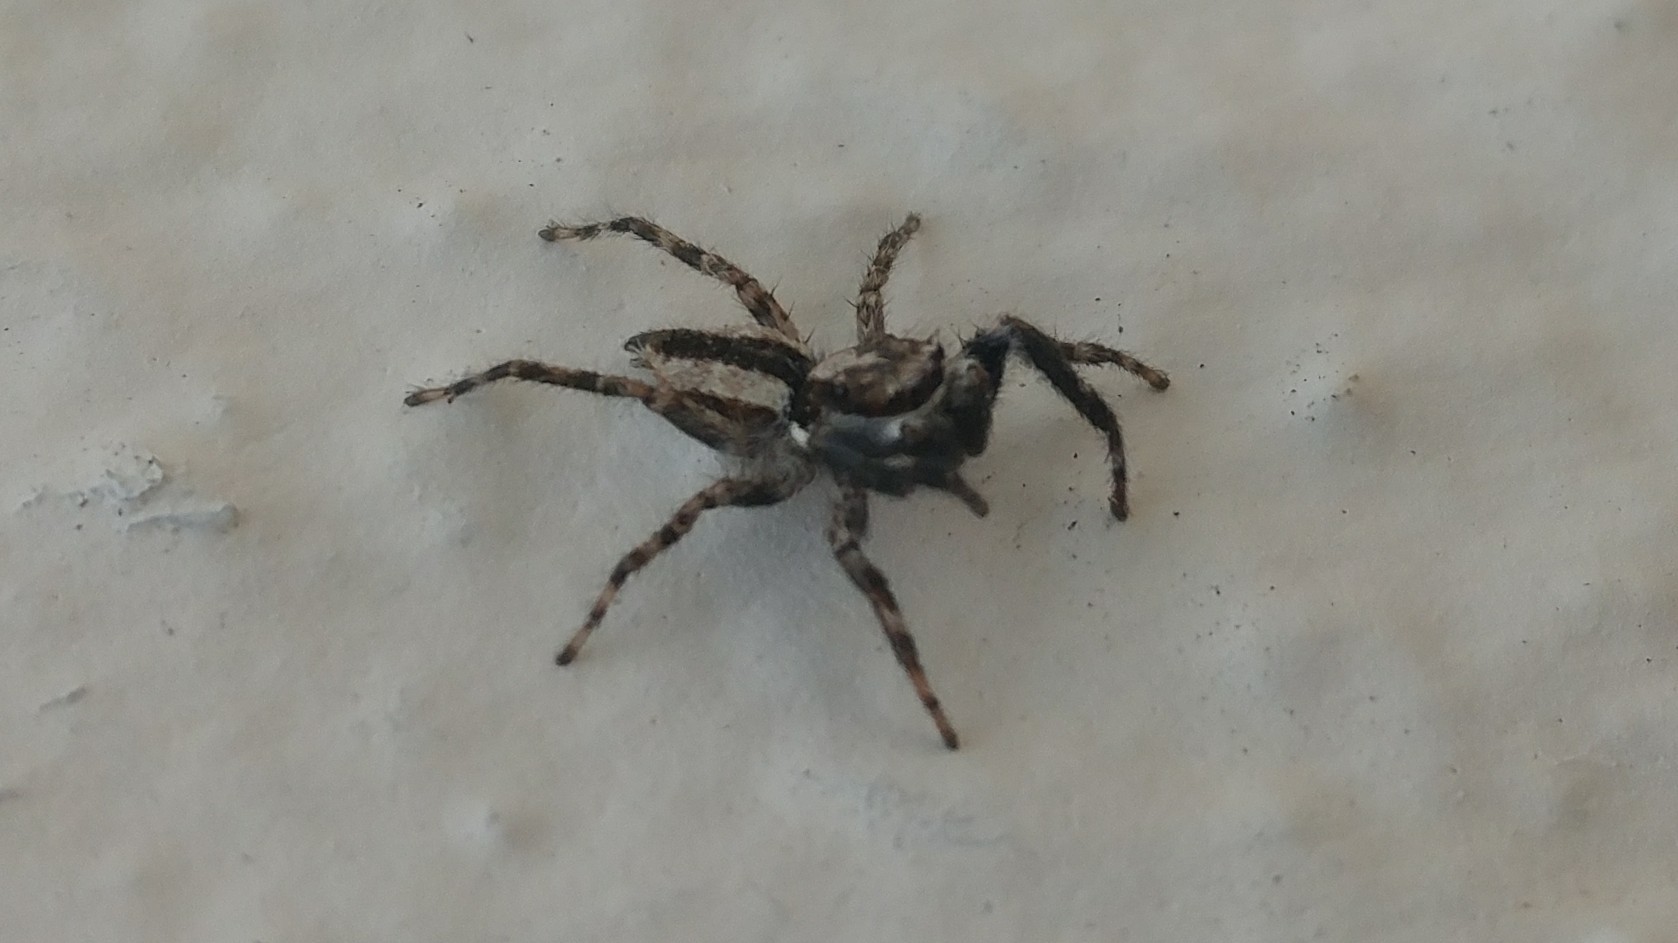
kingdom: Animalia
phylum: Arthropoda
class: Arachnida
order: Araneae
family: Salticidae
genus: Menemerus
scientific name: Menemerus bivittatus
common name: Gray wall jumper
